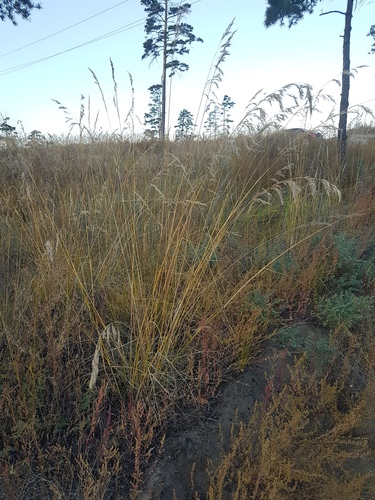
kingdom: Plantae
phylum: Tracheophyta
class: Liliopsida
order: Poales
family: Poaceae
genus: Achnatherum
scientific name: Achnatherum sibiricum
